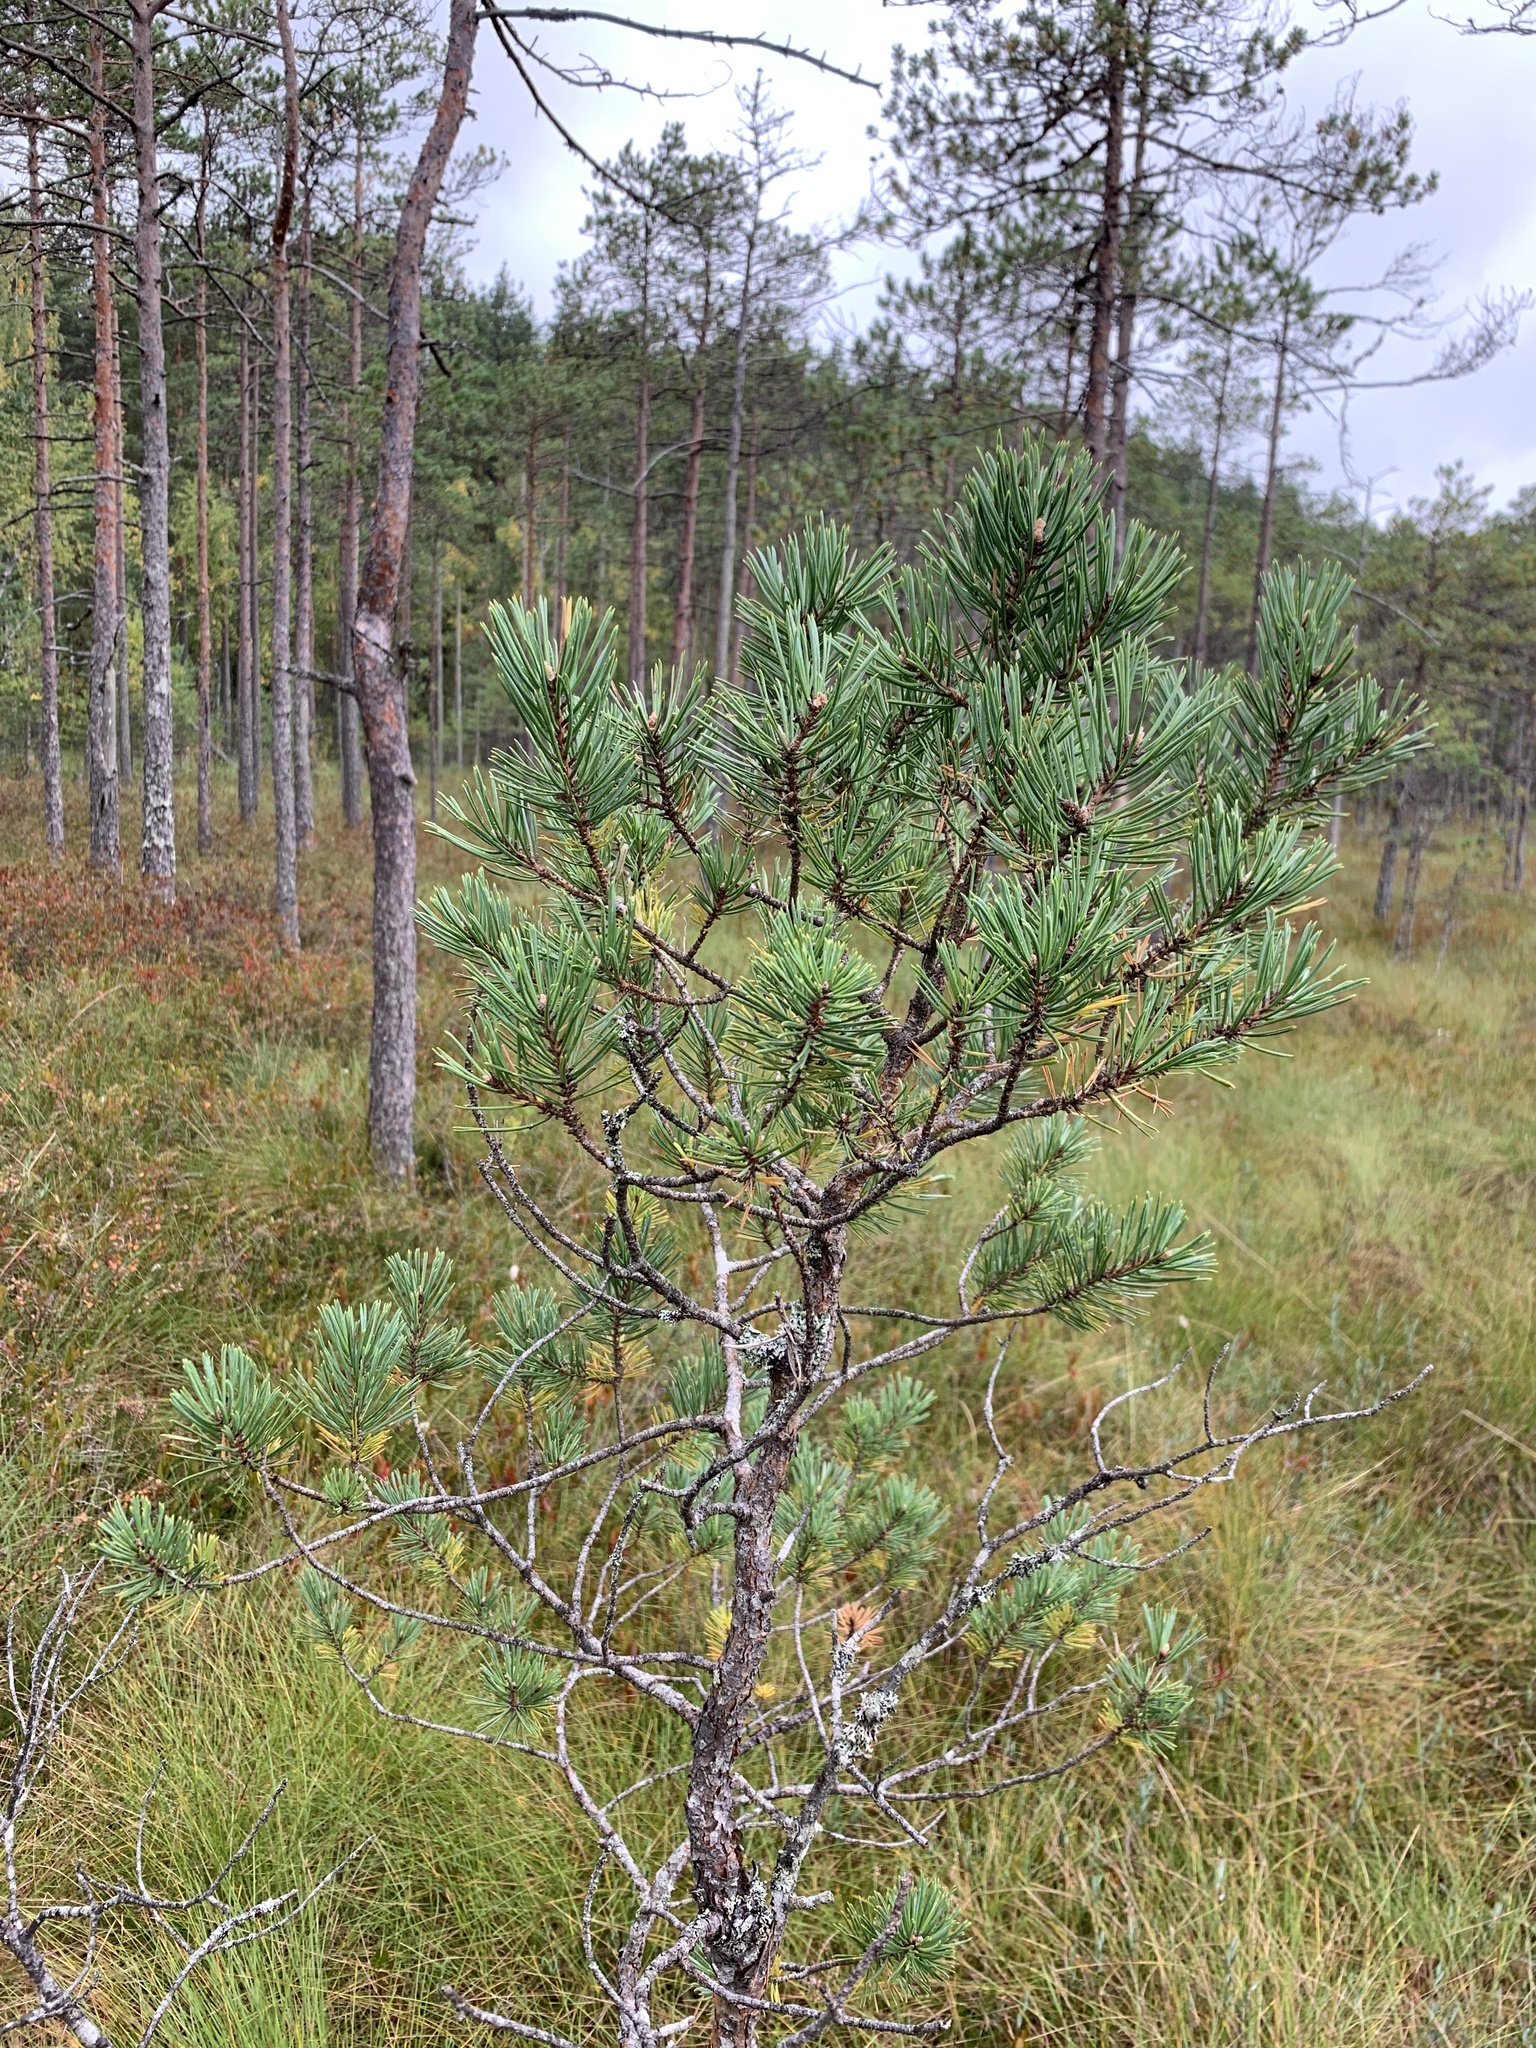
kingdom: Plantae
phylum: Tracheophyta
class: Pinopsida
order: Pinales
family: Pinaceae
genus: Pinus
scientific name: Pinus sylvestris
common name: Scots pine
